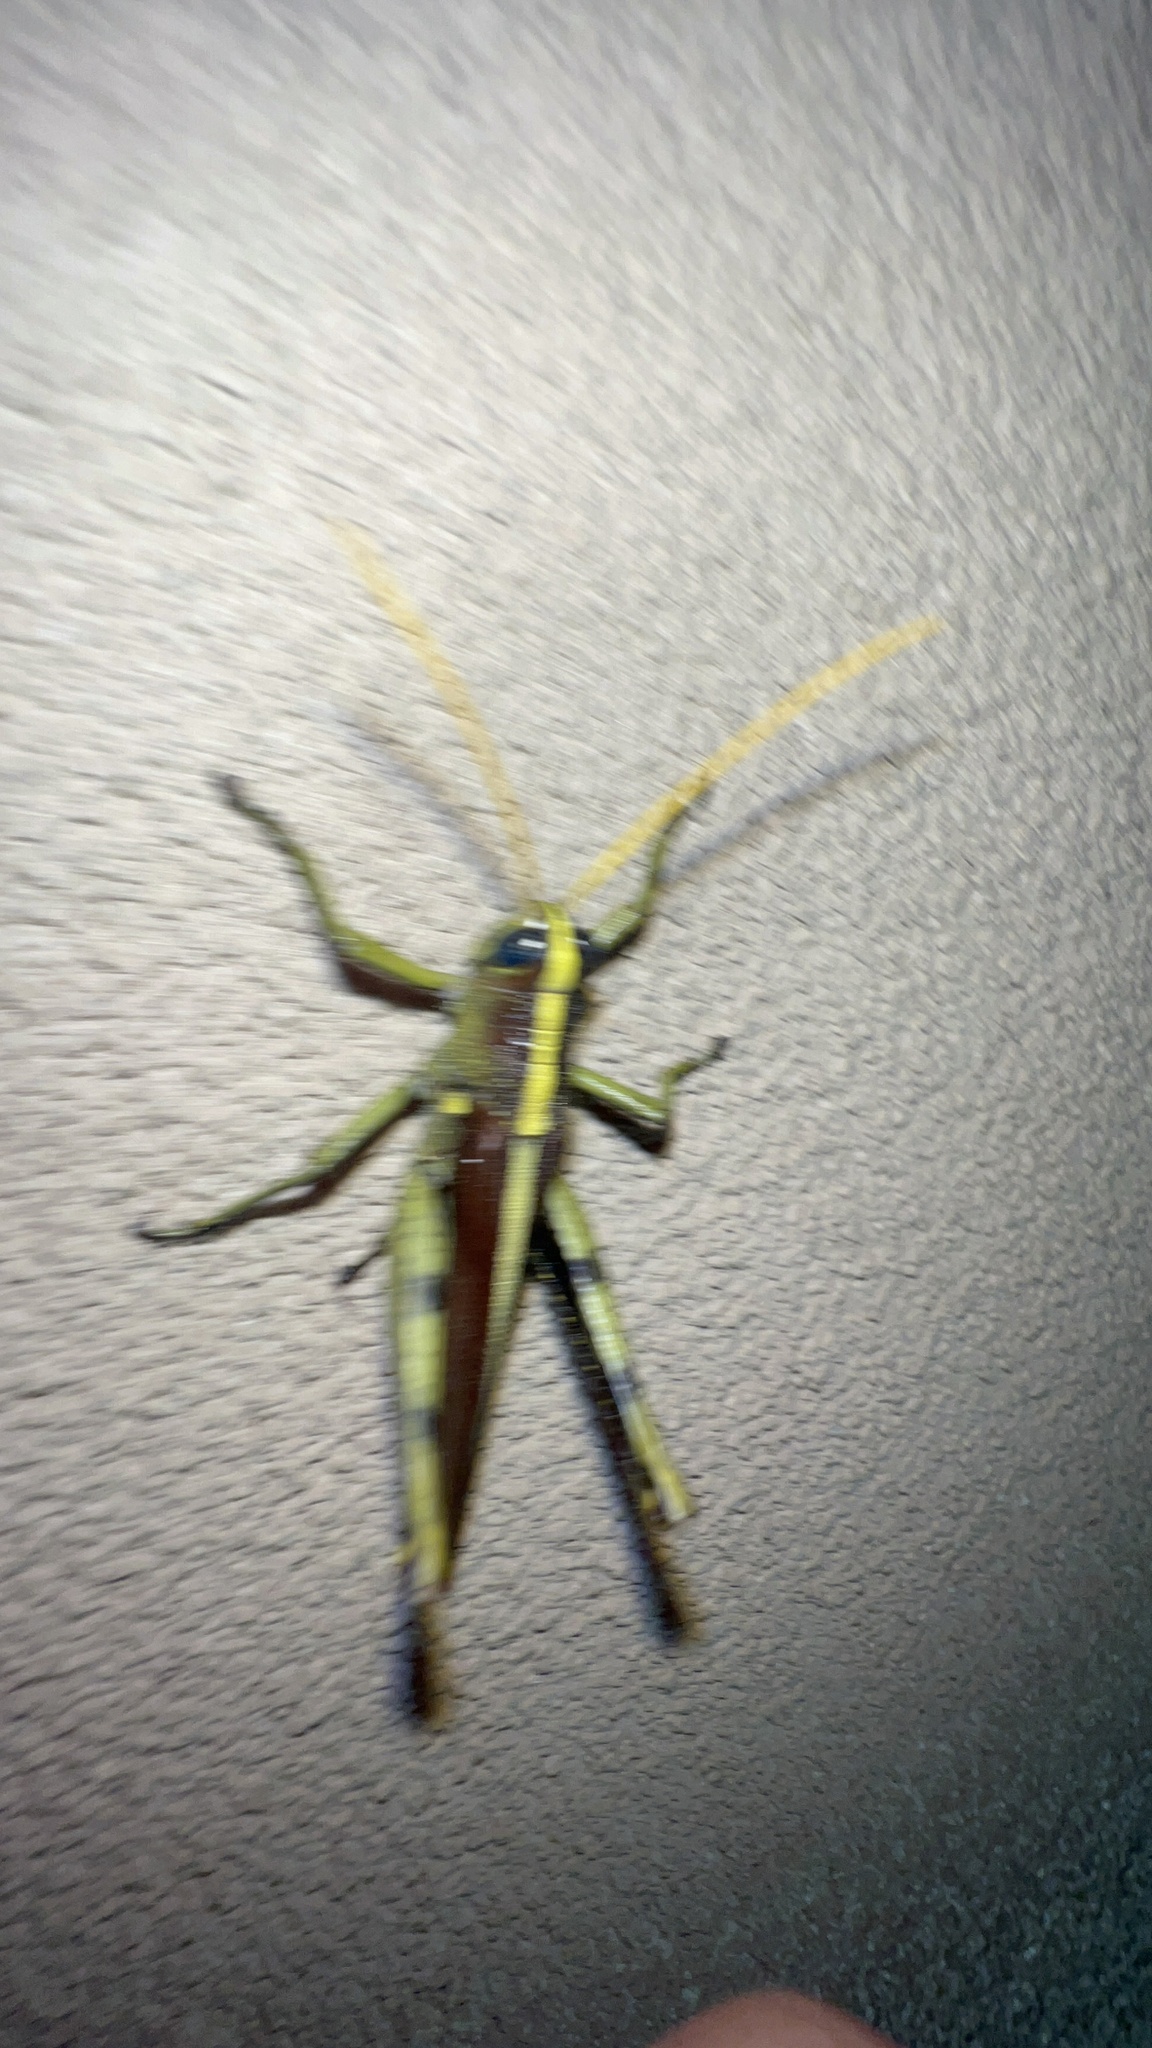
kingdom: Animalia
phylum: Arthropoda
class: Insecta
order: Orthoptera
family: Acrididae
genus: Schistocerca
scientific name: Schistocerca obscura
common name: Obscure bird grasshopper
